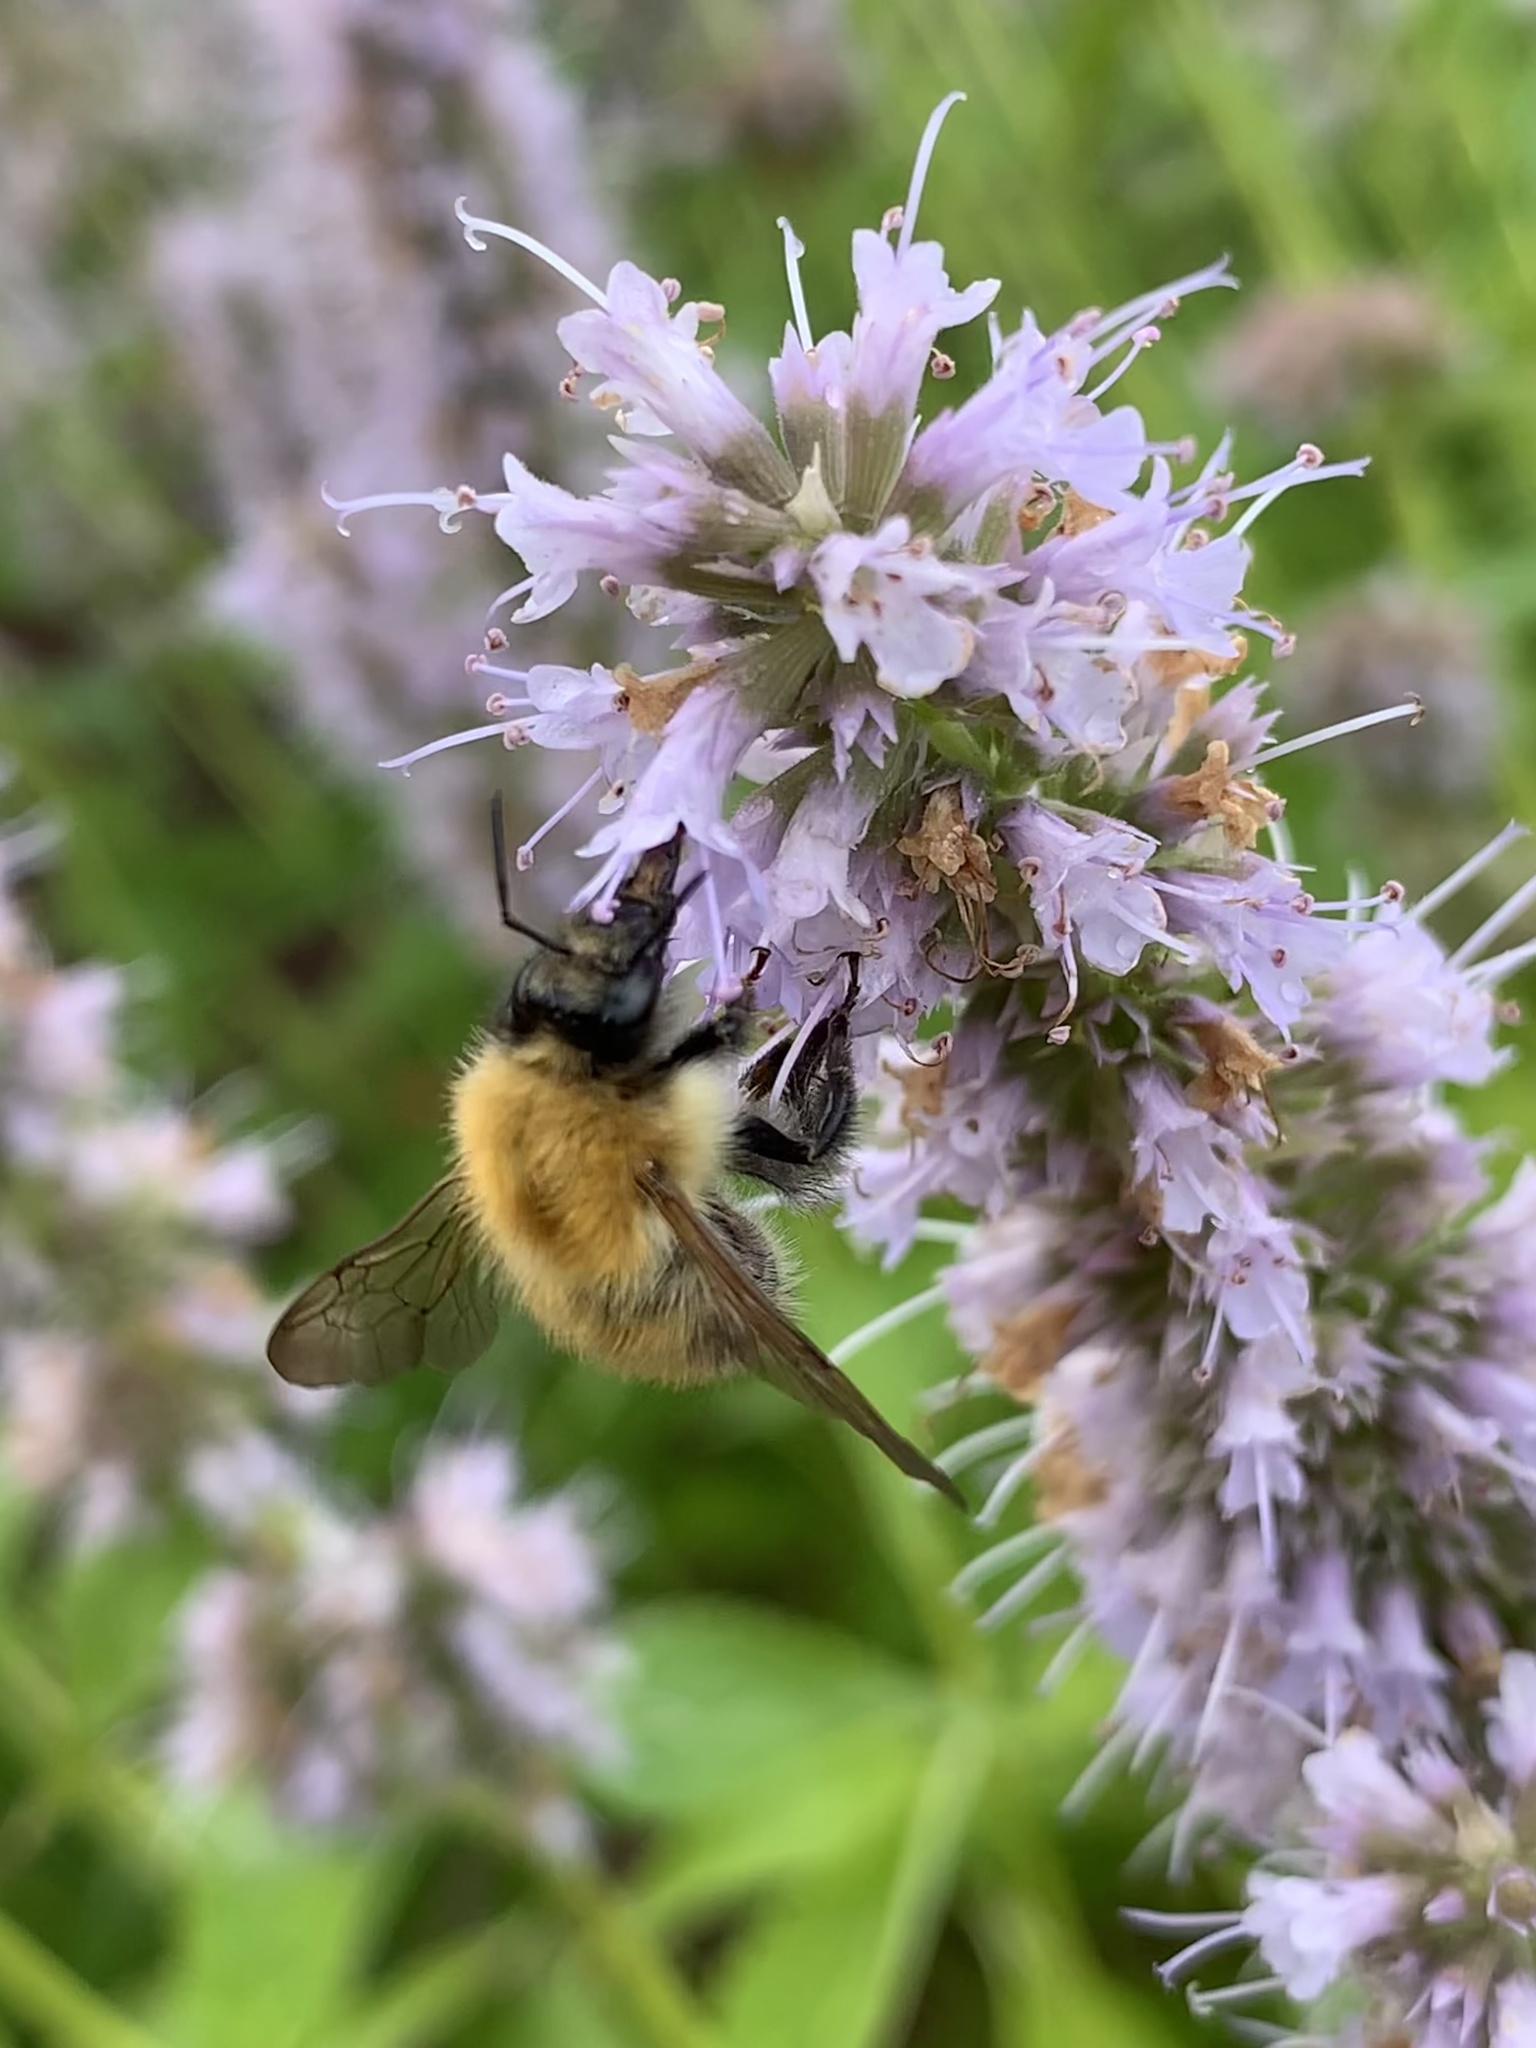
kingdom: Animalia
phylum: Arthropoda
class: Insecta
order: Hymenoptera
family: Apidae
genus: Bombus
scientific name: Bombus pascuorum
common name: Common carder bee
